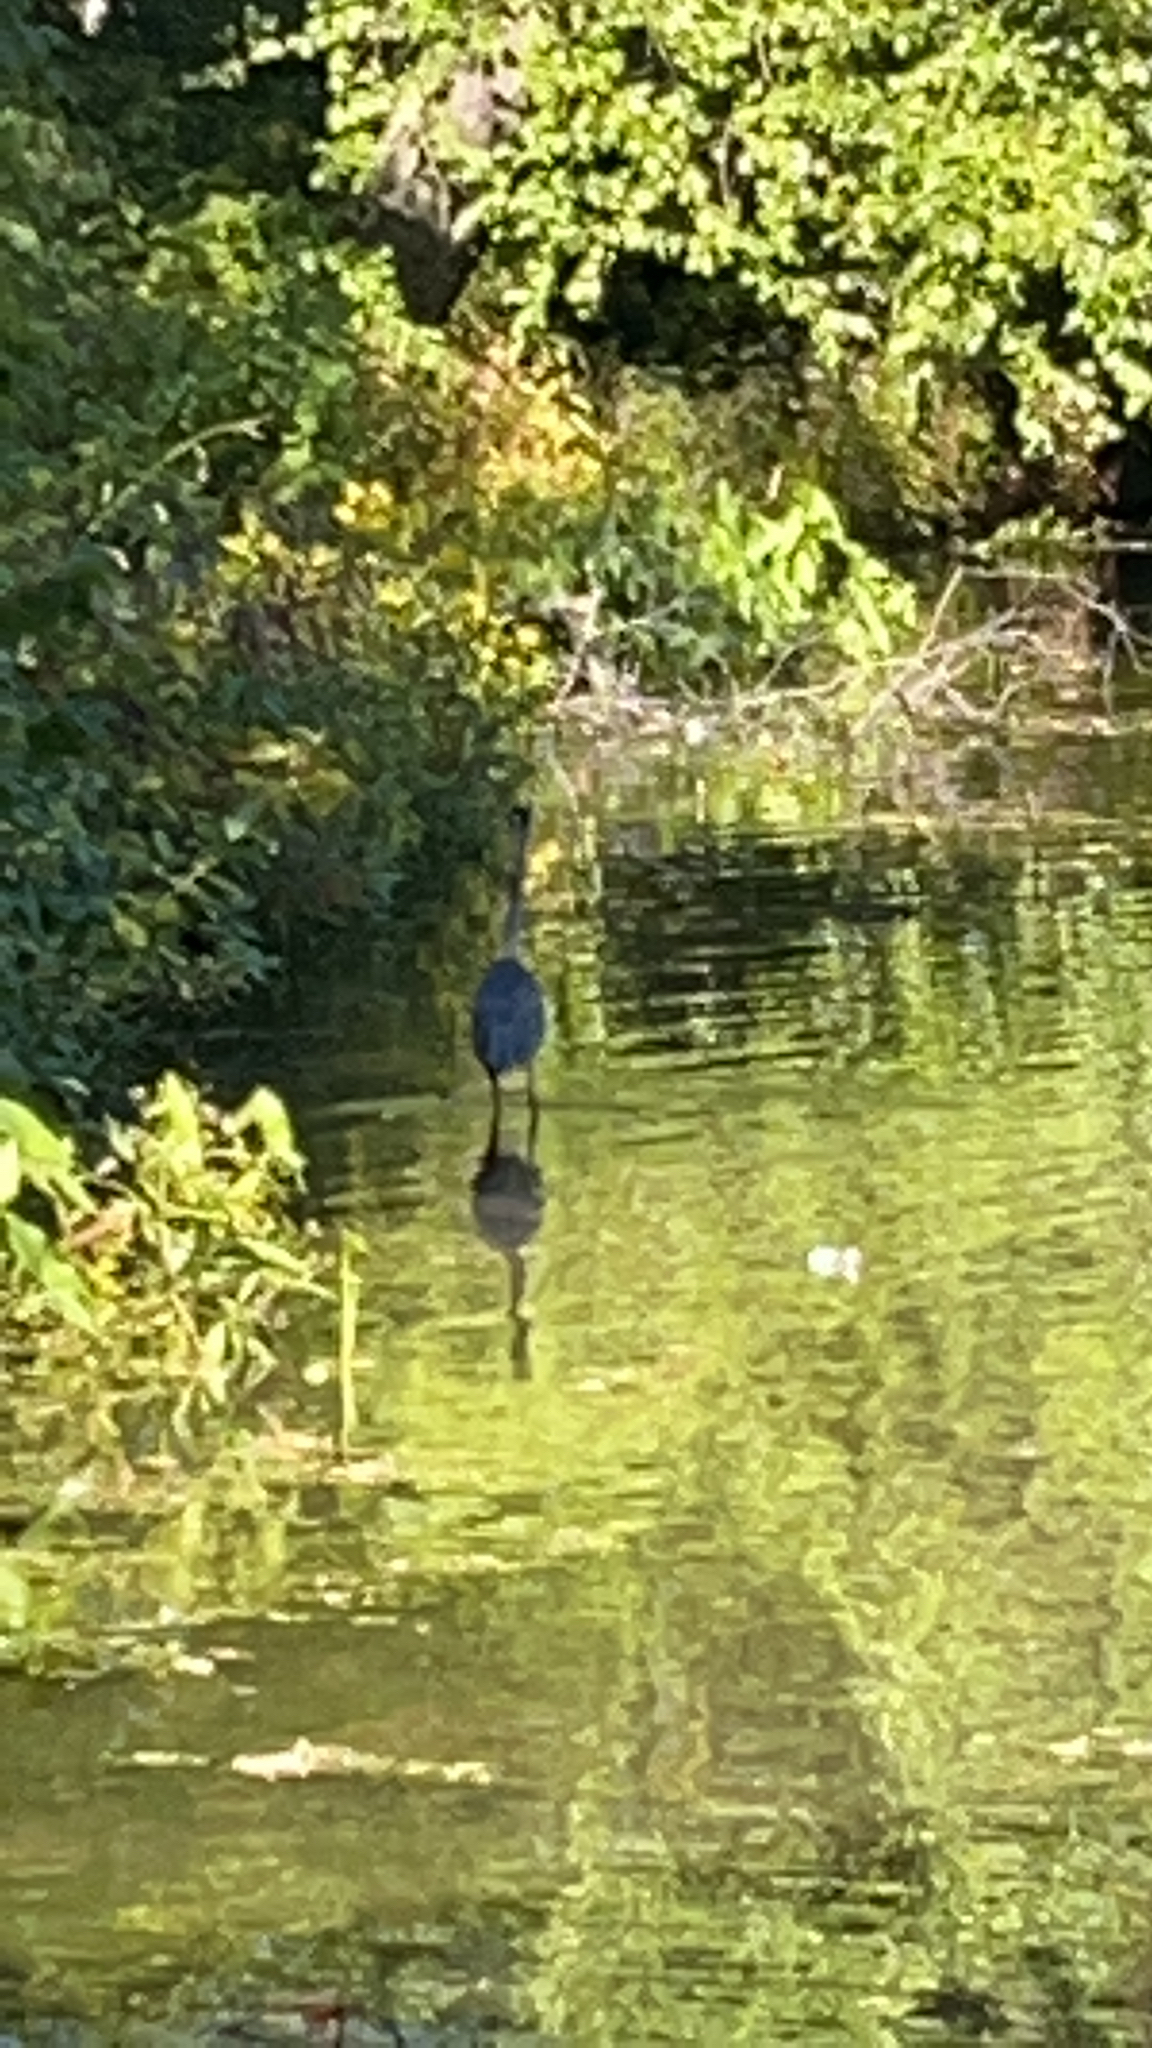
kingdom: Animalia
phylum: Chordata
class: Aves
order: Pelecaniformes
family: Ardeidae
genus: Egretta
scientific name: Egretta caerulea
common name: Little blue heron
